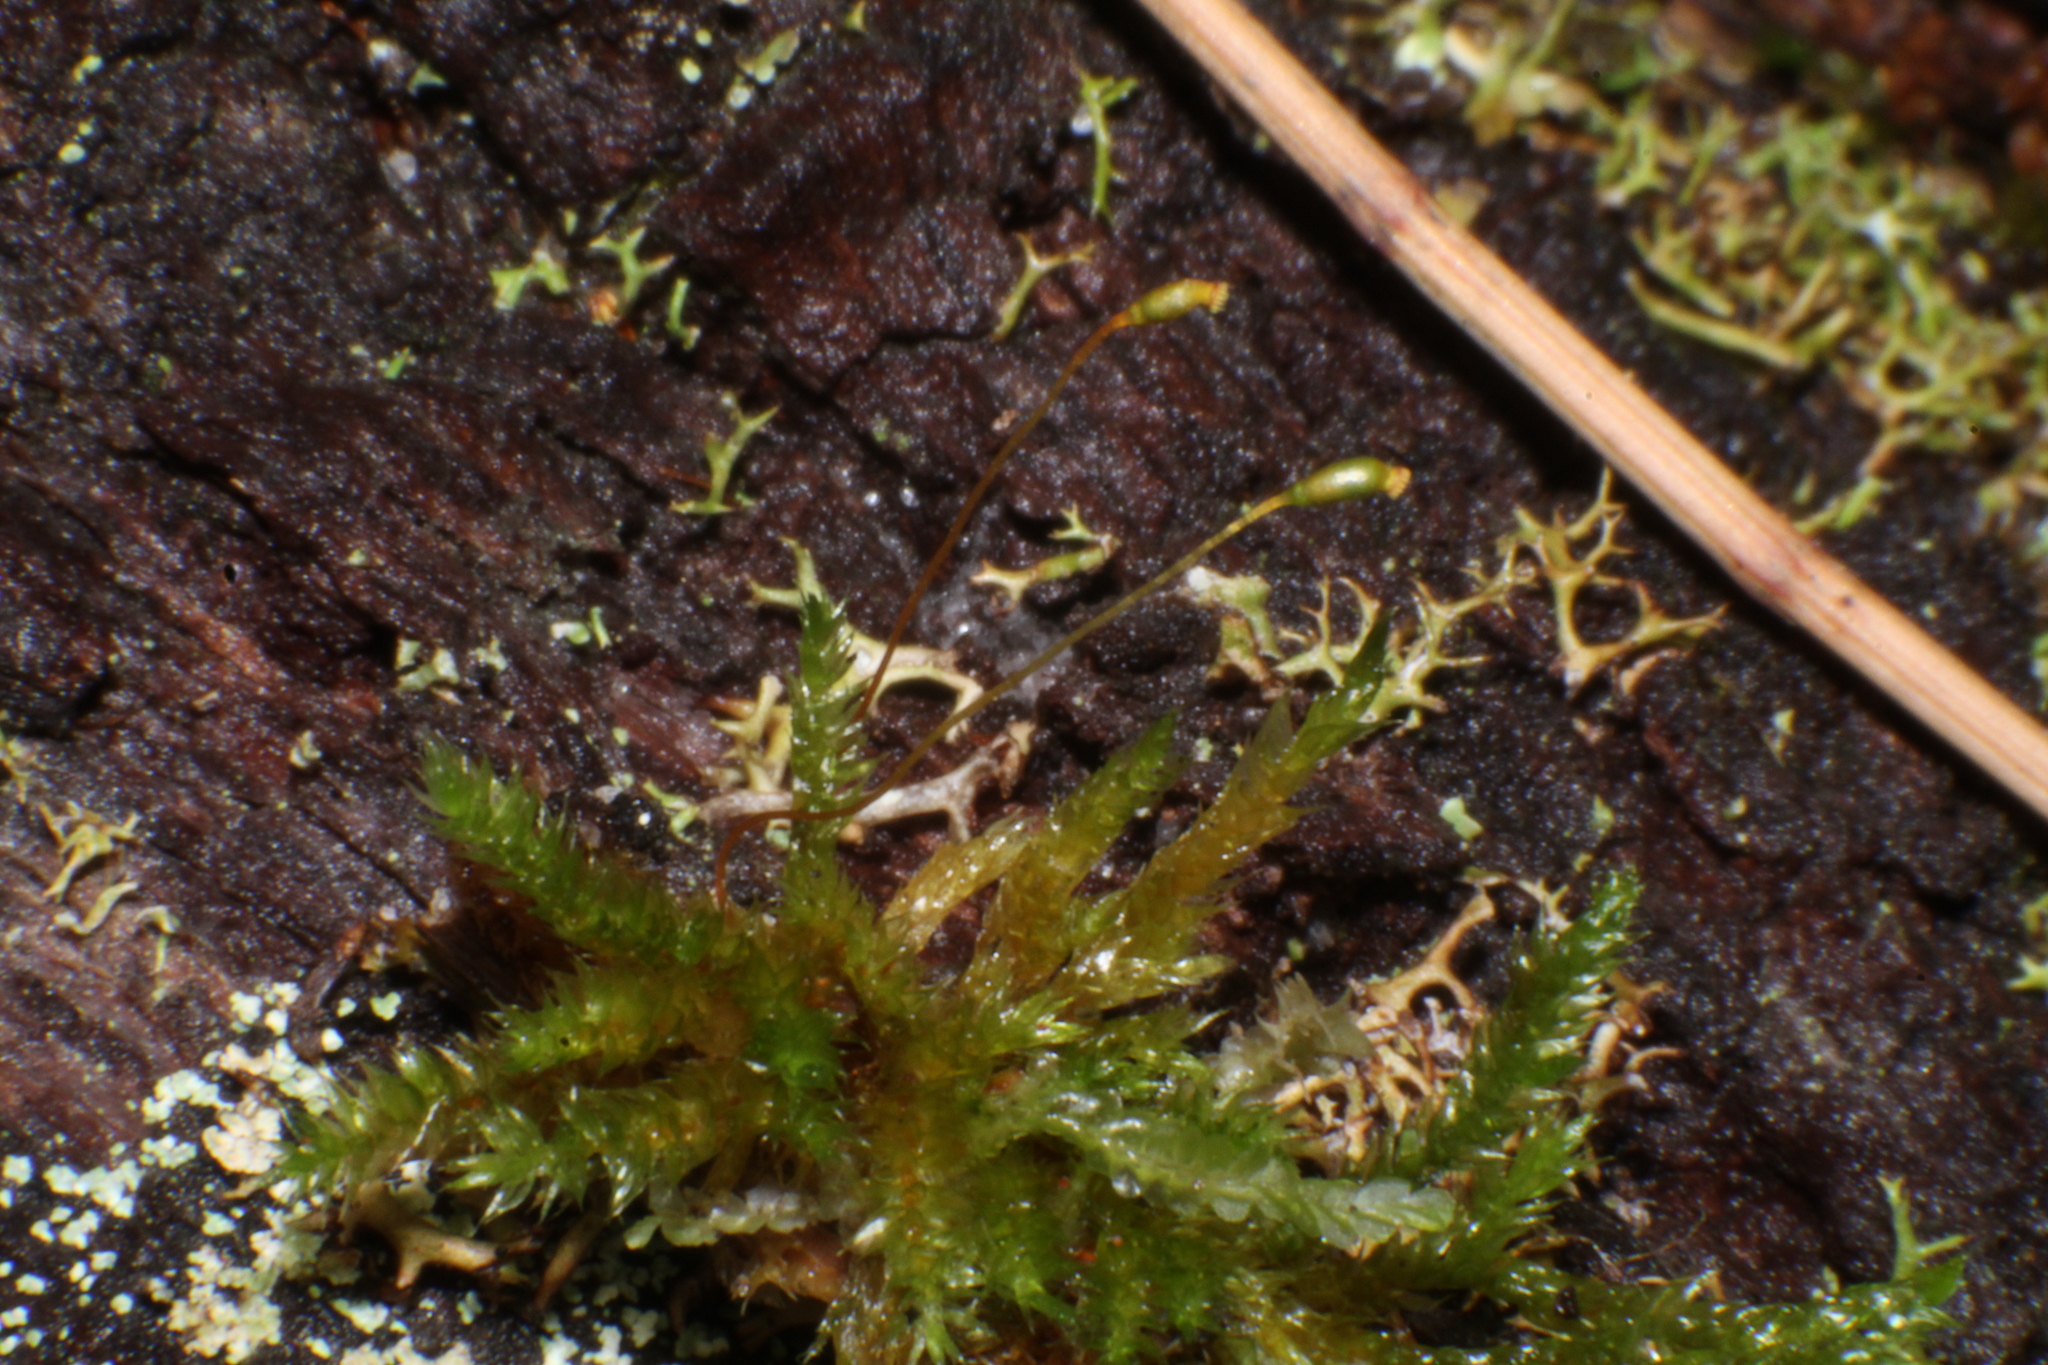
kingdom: Plantae
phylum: Bryophyta
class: Bryopsida
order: Hypnales
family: Sematophyllaceae
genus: Sematophyllum
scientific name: Sematophyllum homomallum
